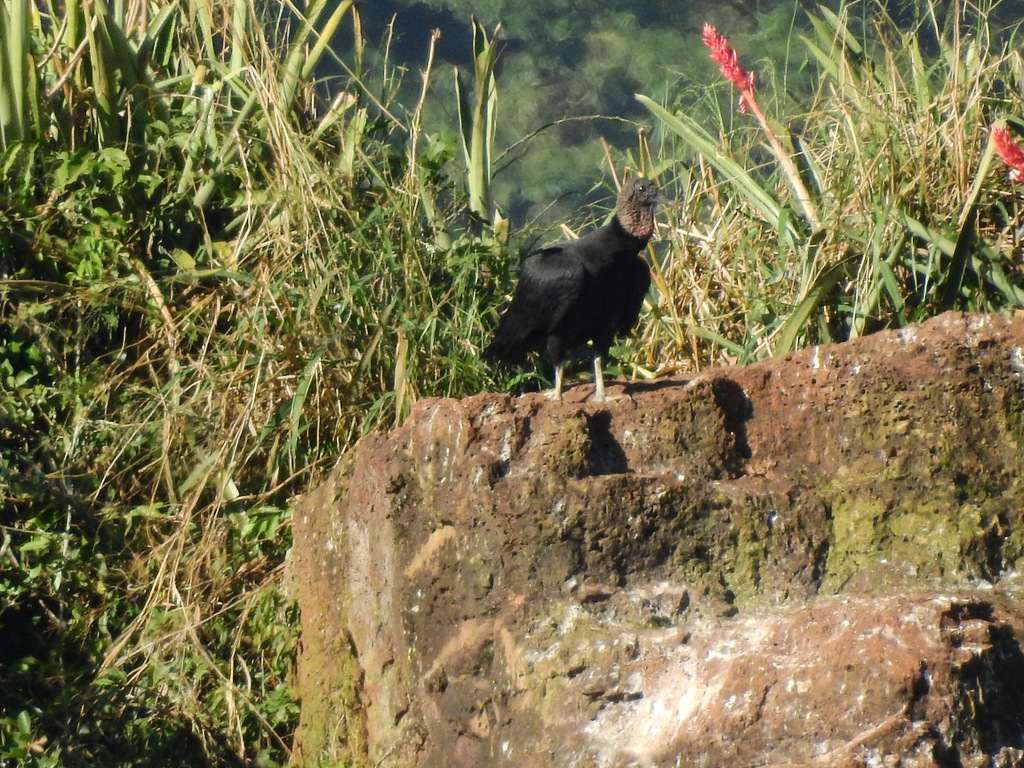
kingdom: Animalia
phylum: Chordata
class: Aves
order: Accipitriformes
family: Cathartidae
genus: Coragyps
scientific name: Coragyps atratus
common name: Black vulture
